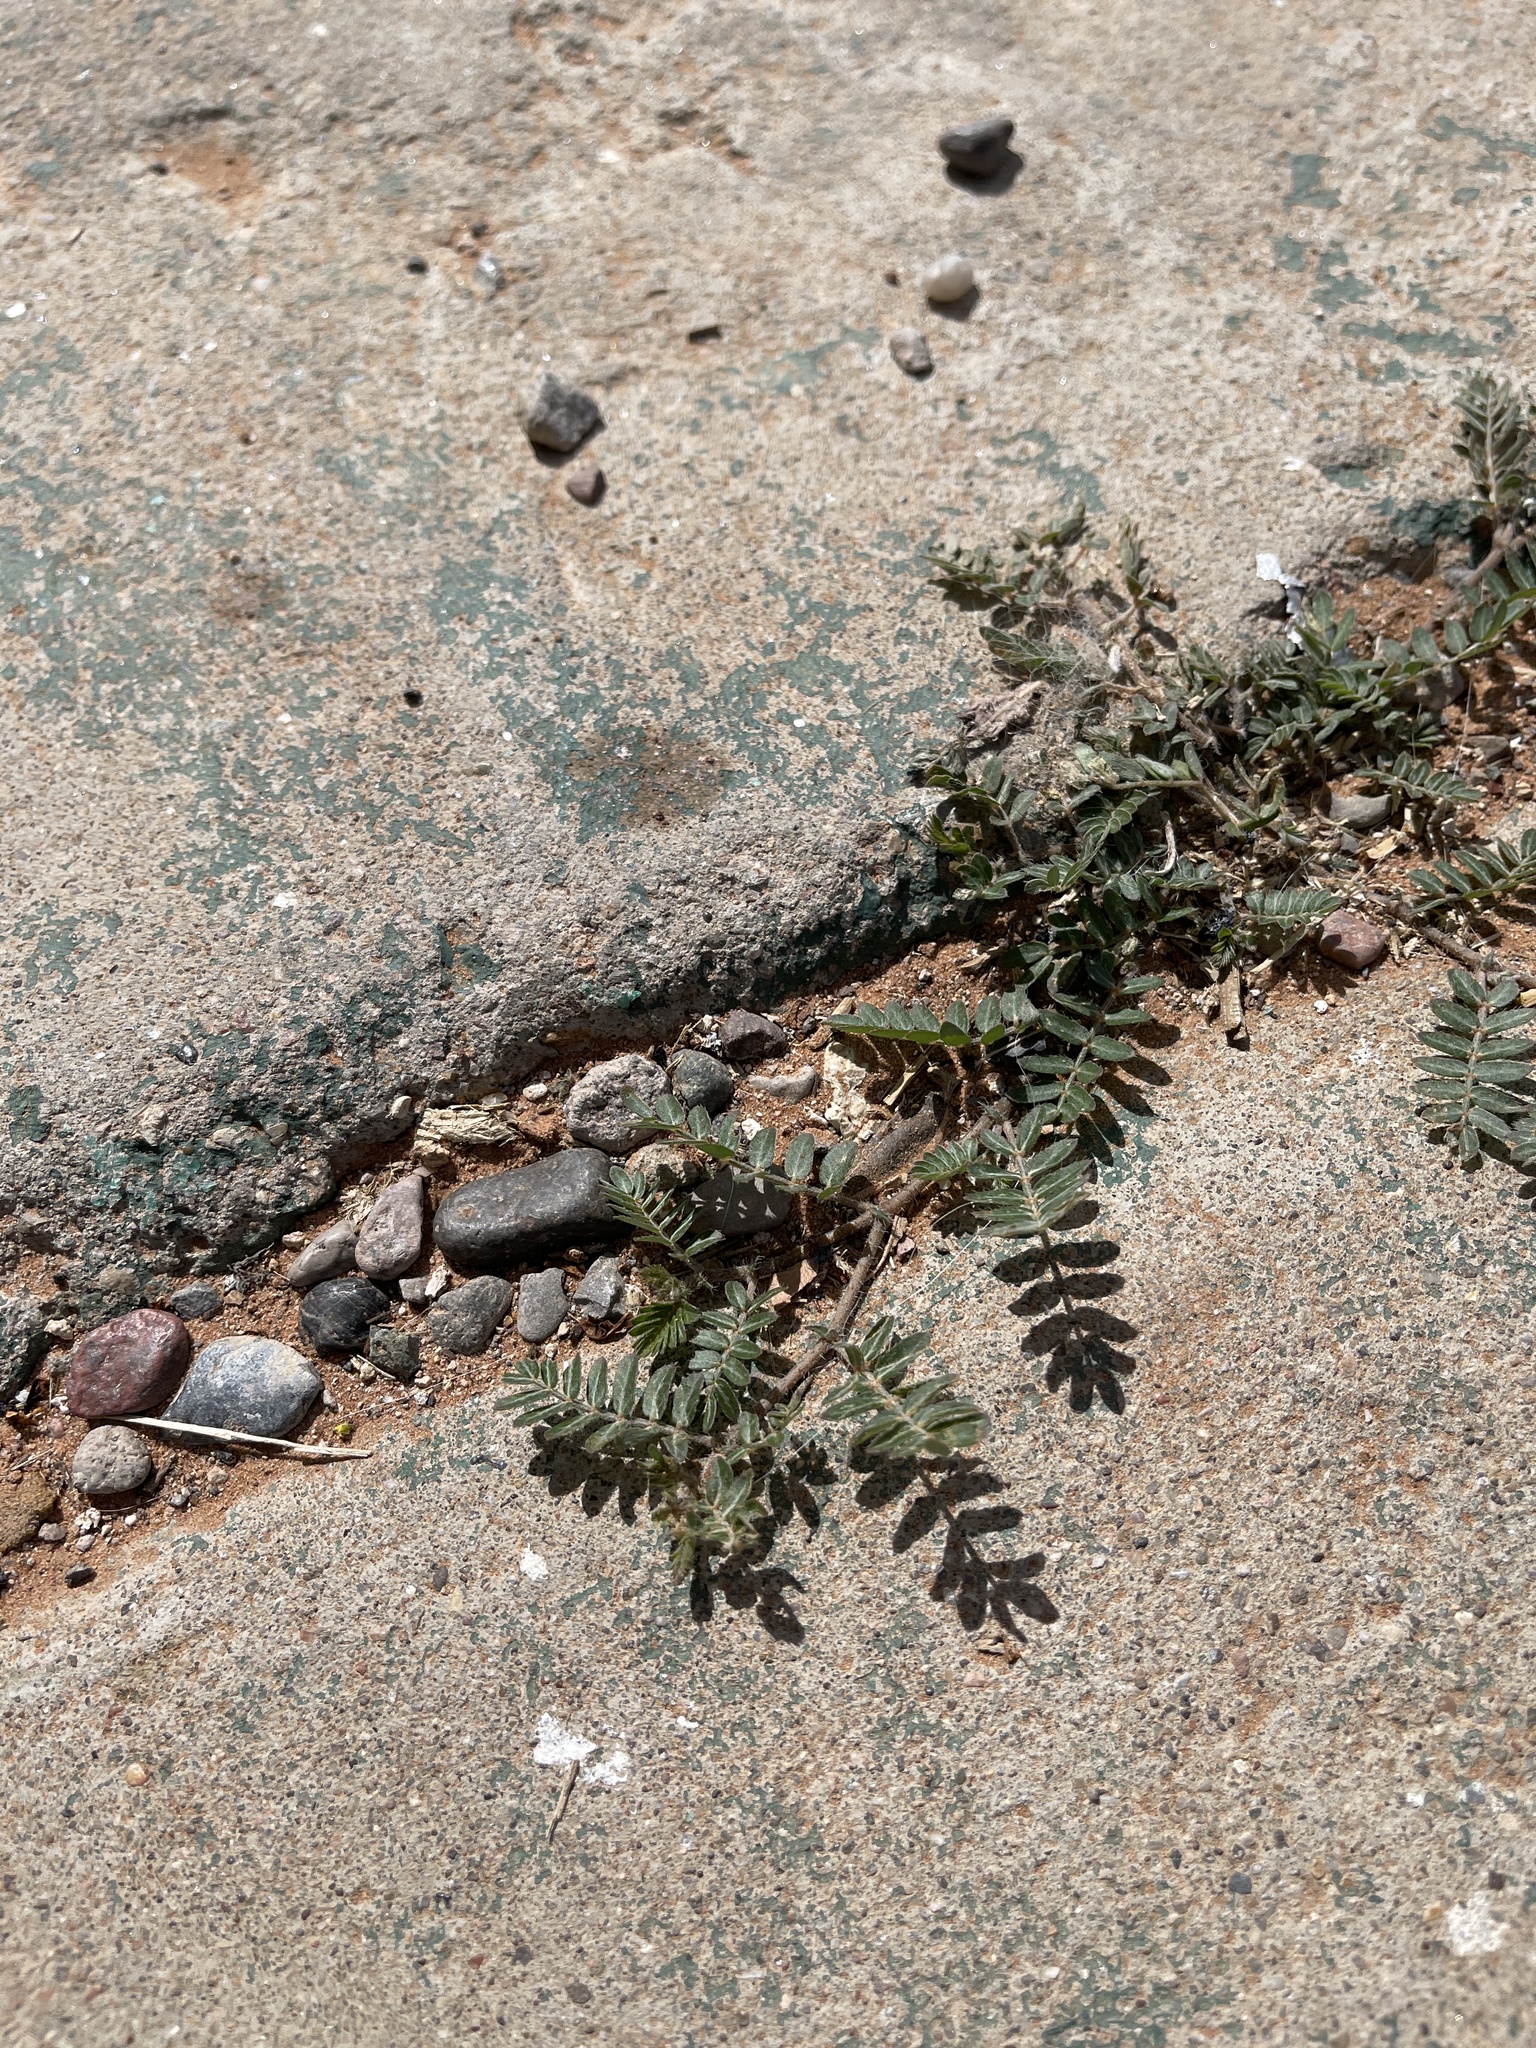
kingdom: Plantae
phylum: Tracheophyta
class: Magnoliopsida
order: Zygophyllales
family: Zygophyllaceae
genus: Tribulus
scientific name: Tribulus terrestris
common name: Puncturevine
